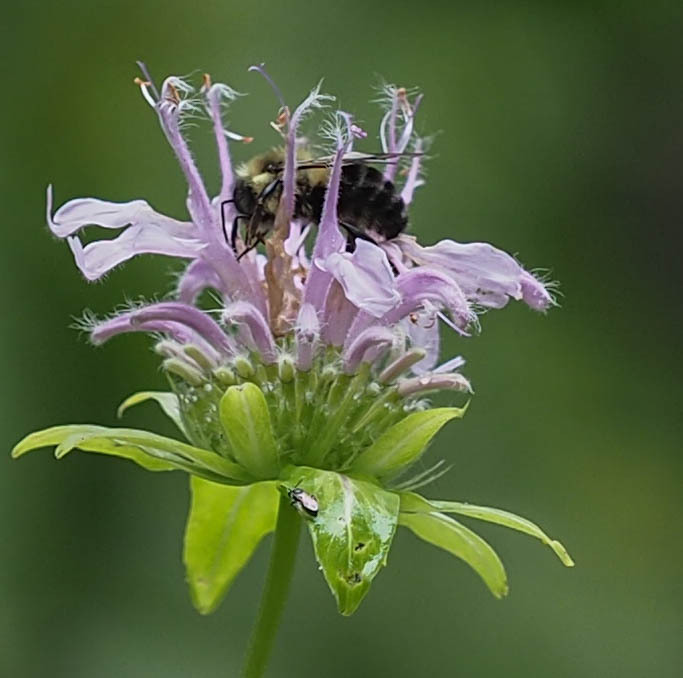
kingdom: Animalia
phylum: Arthropoda
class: Insecta
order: Hymenoptera
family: Apidae
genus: Bombus
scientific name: Bombus impatiens
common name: Common eastern bumble bee
